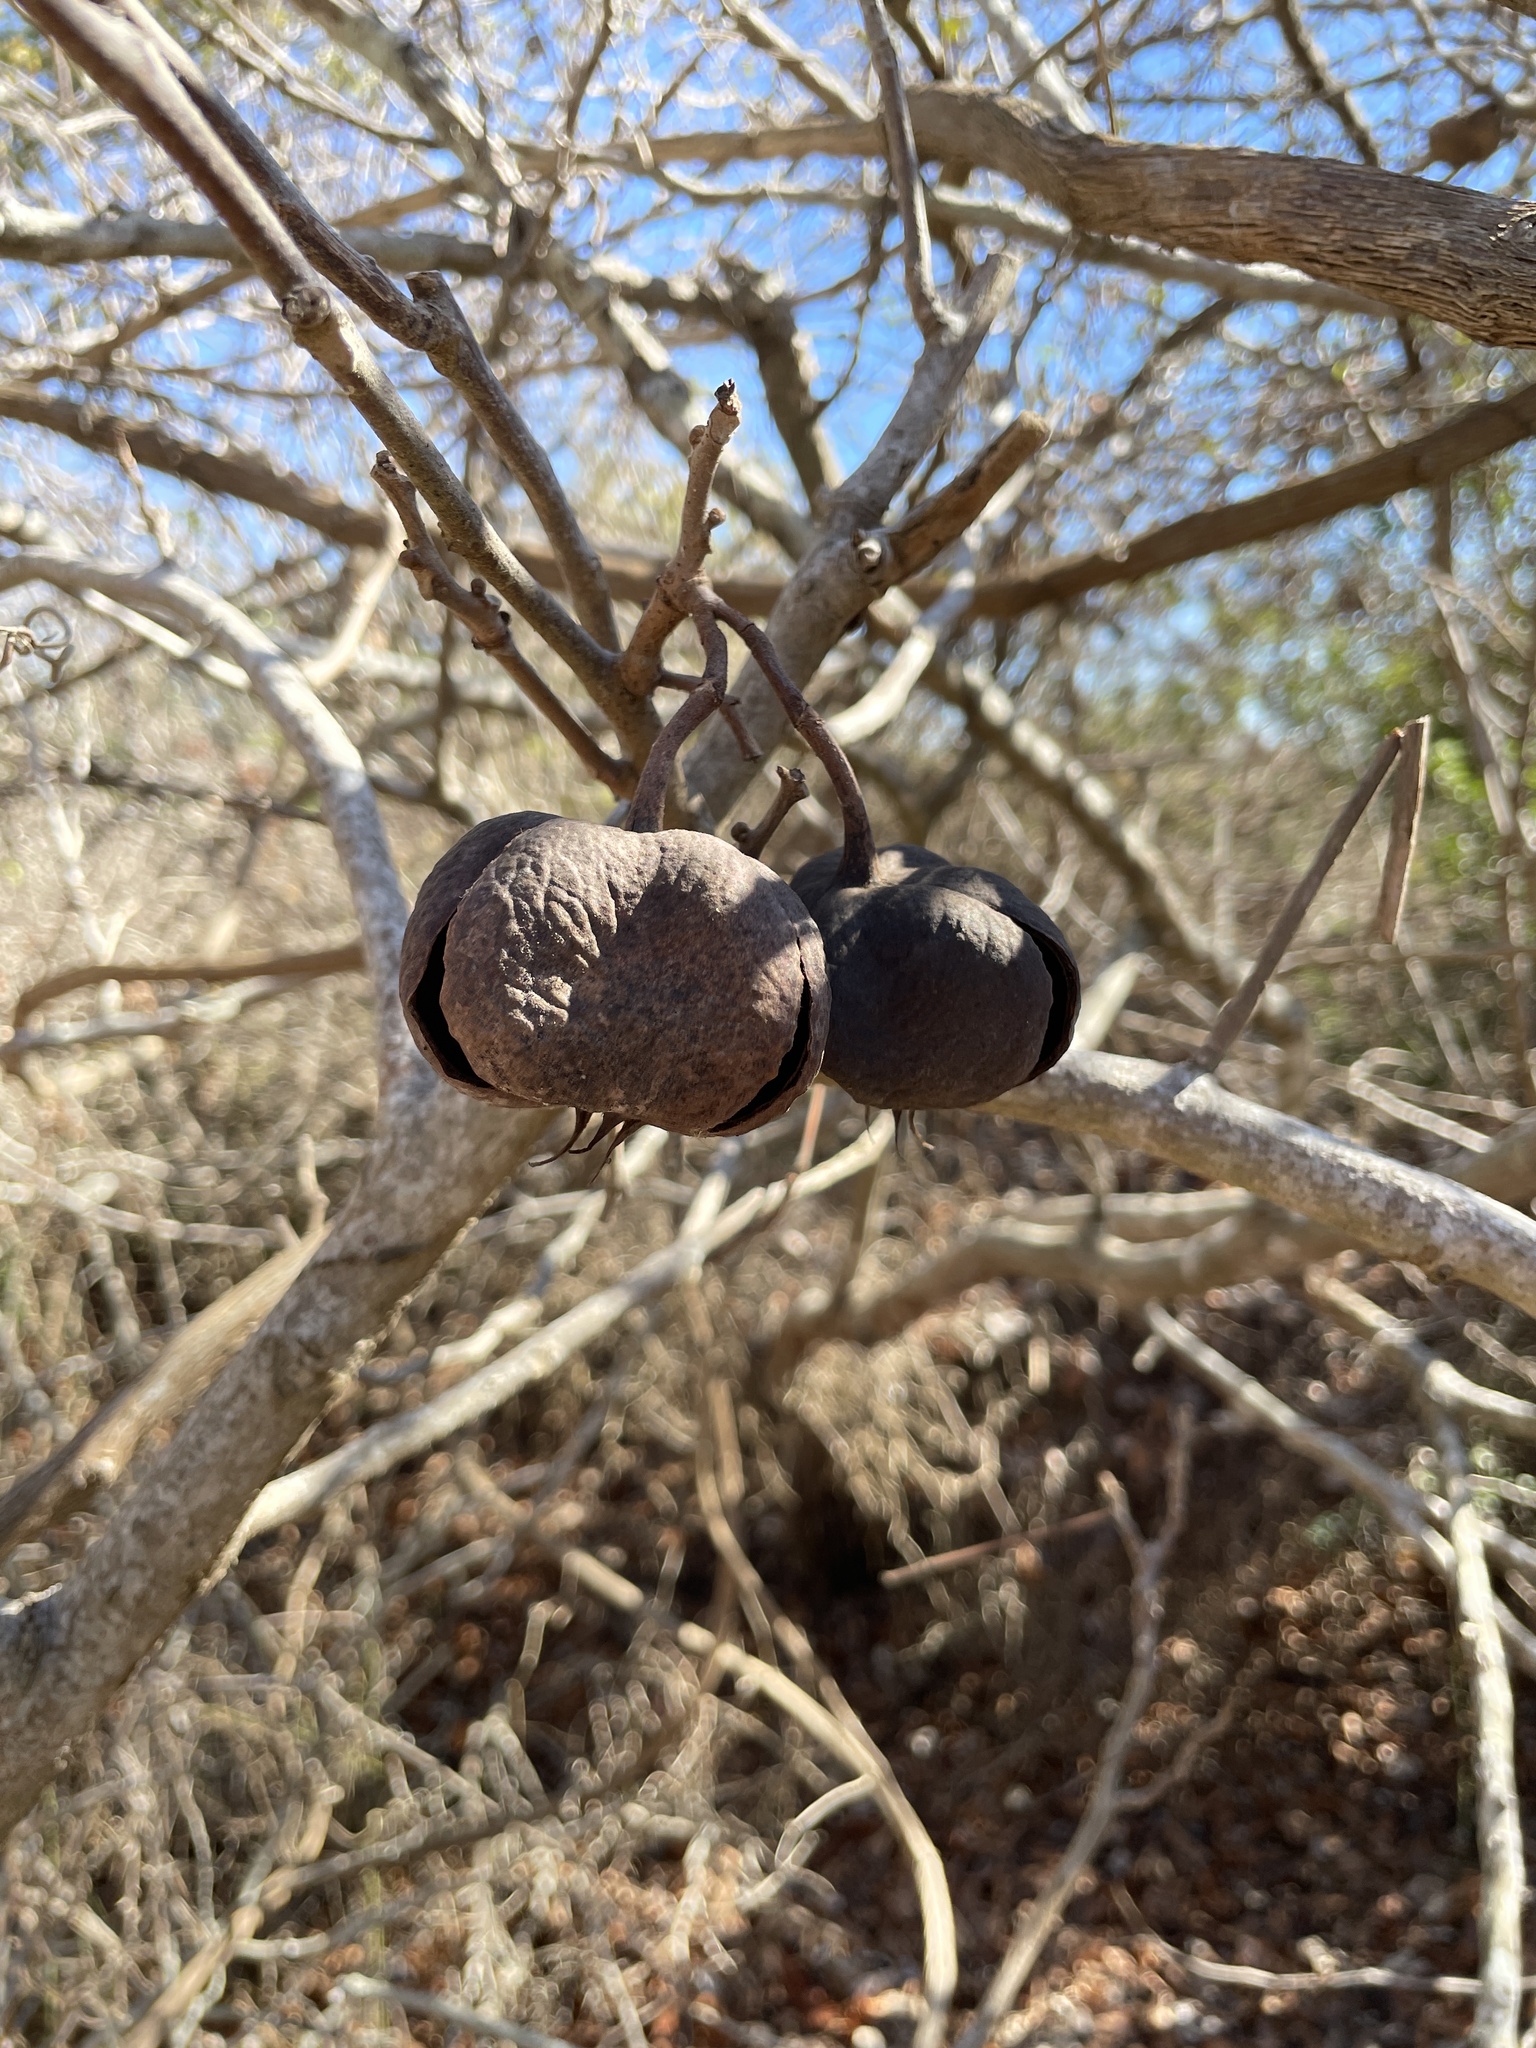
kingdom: Plantae
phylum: Tracheophyta
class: Magnoliopsida
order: Sapindales
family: Sapindaceae
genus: Ungnadia
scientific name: Ungnadia speciosa
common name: Texas-buckeye
